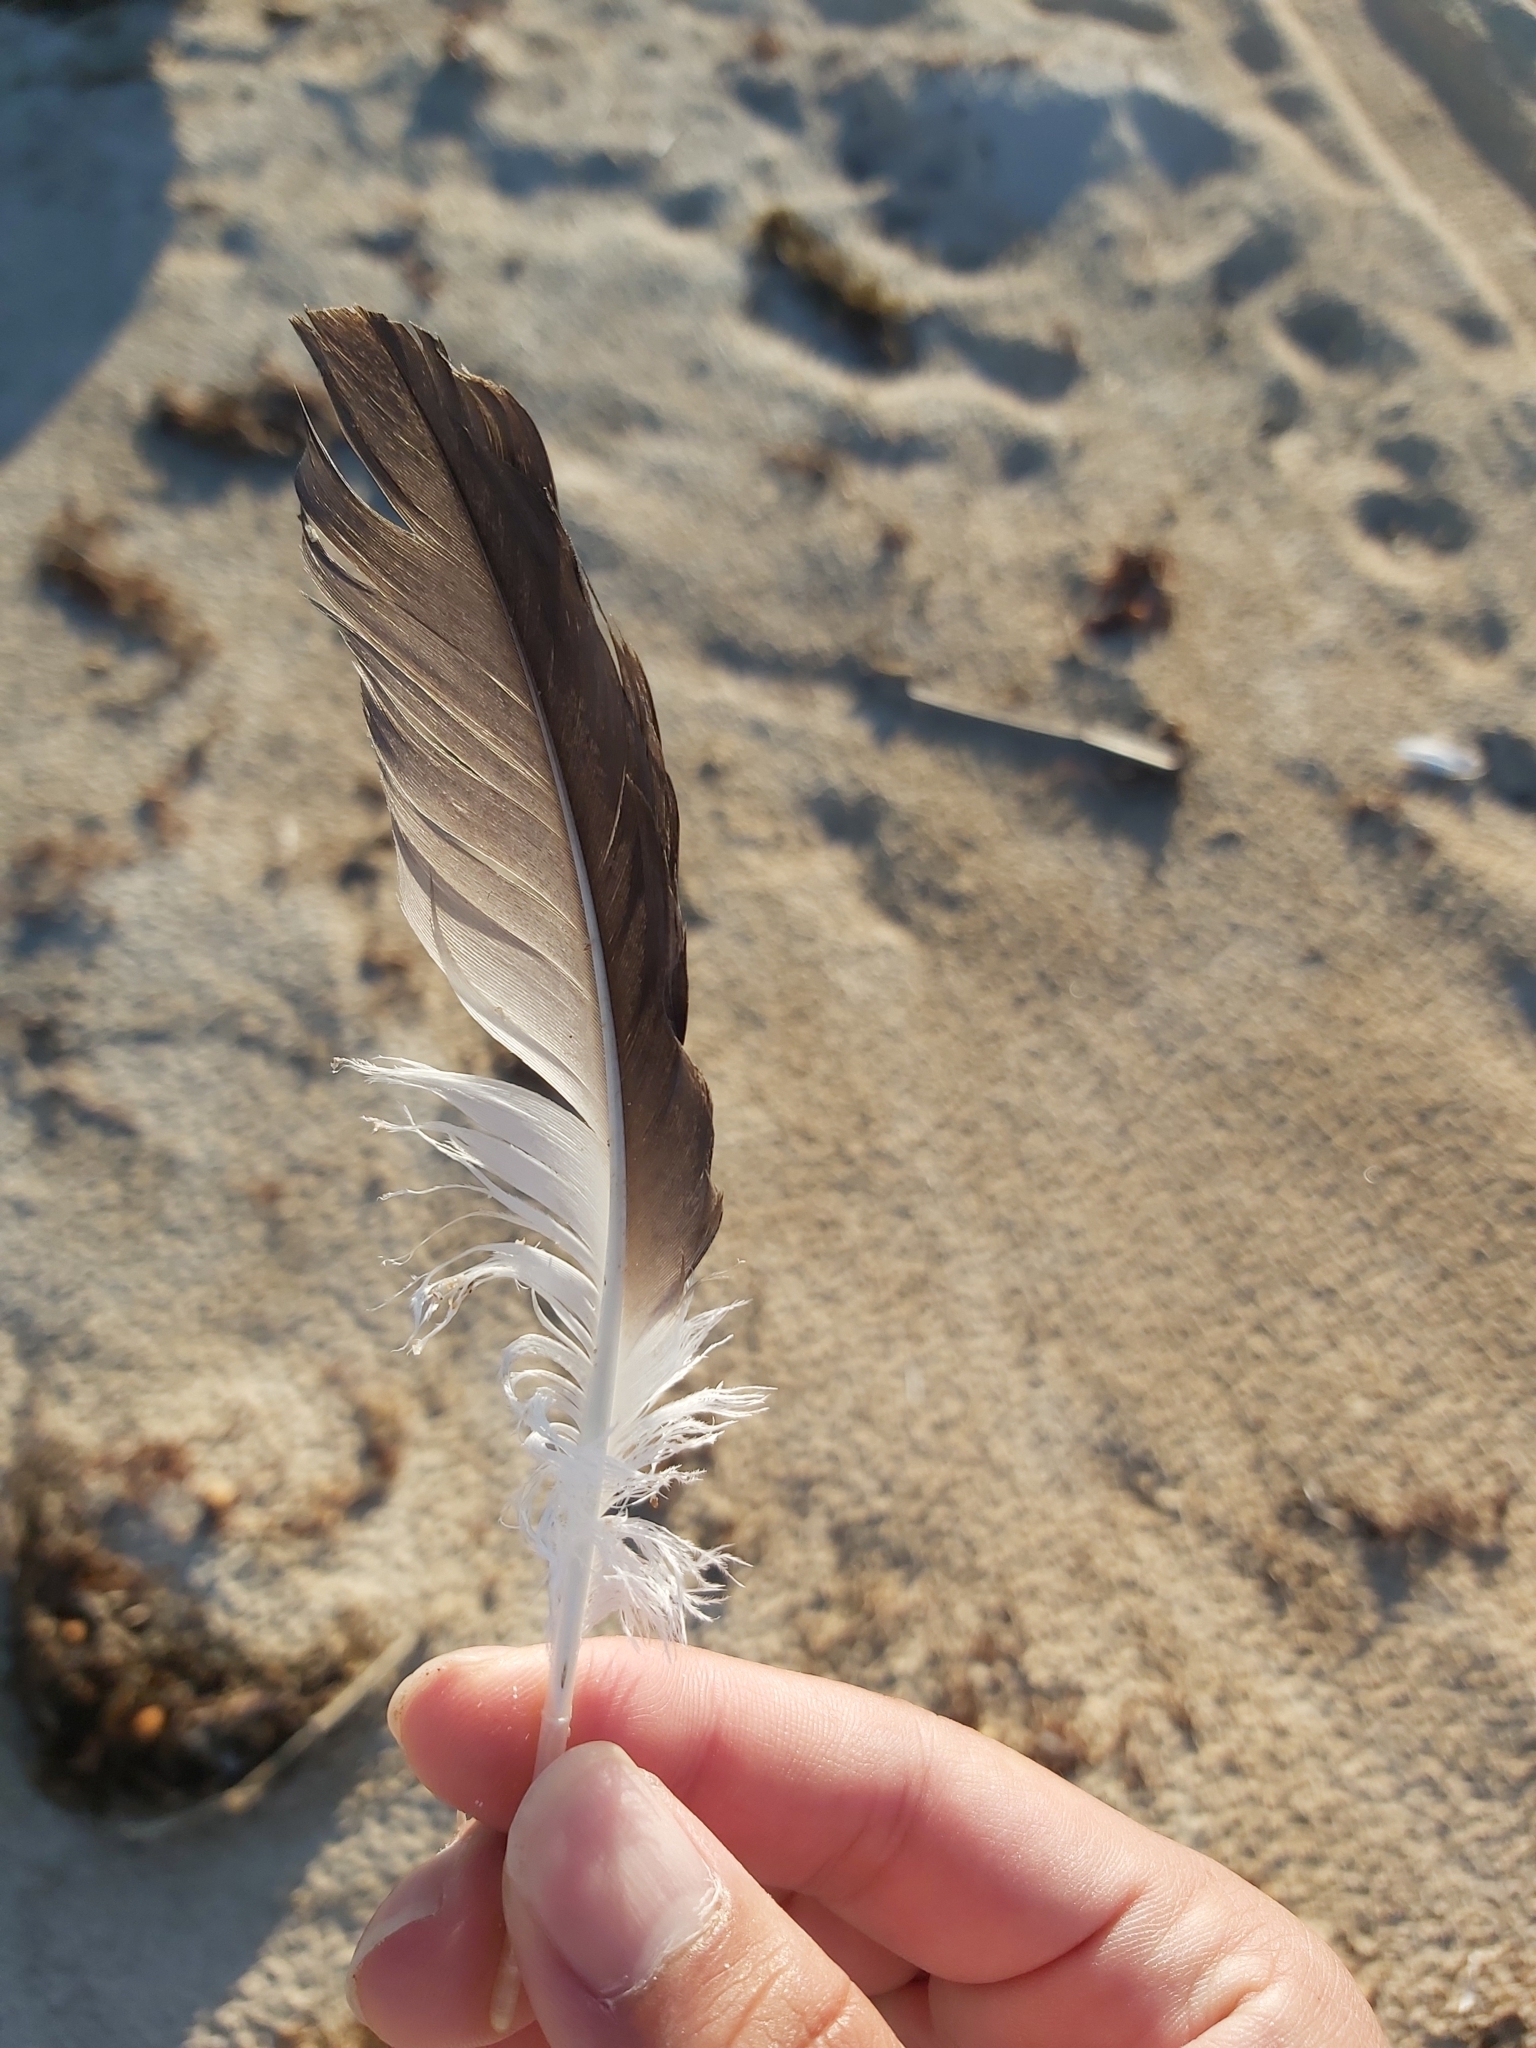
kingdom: Animalia
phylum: Chordata
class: Aves
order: Suliformes
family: Sulidae
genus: Morus
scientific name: Morus serrator
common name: Australasian gannet
